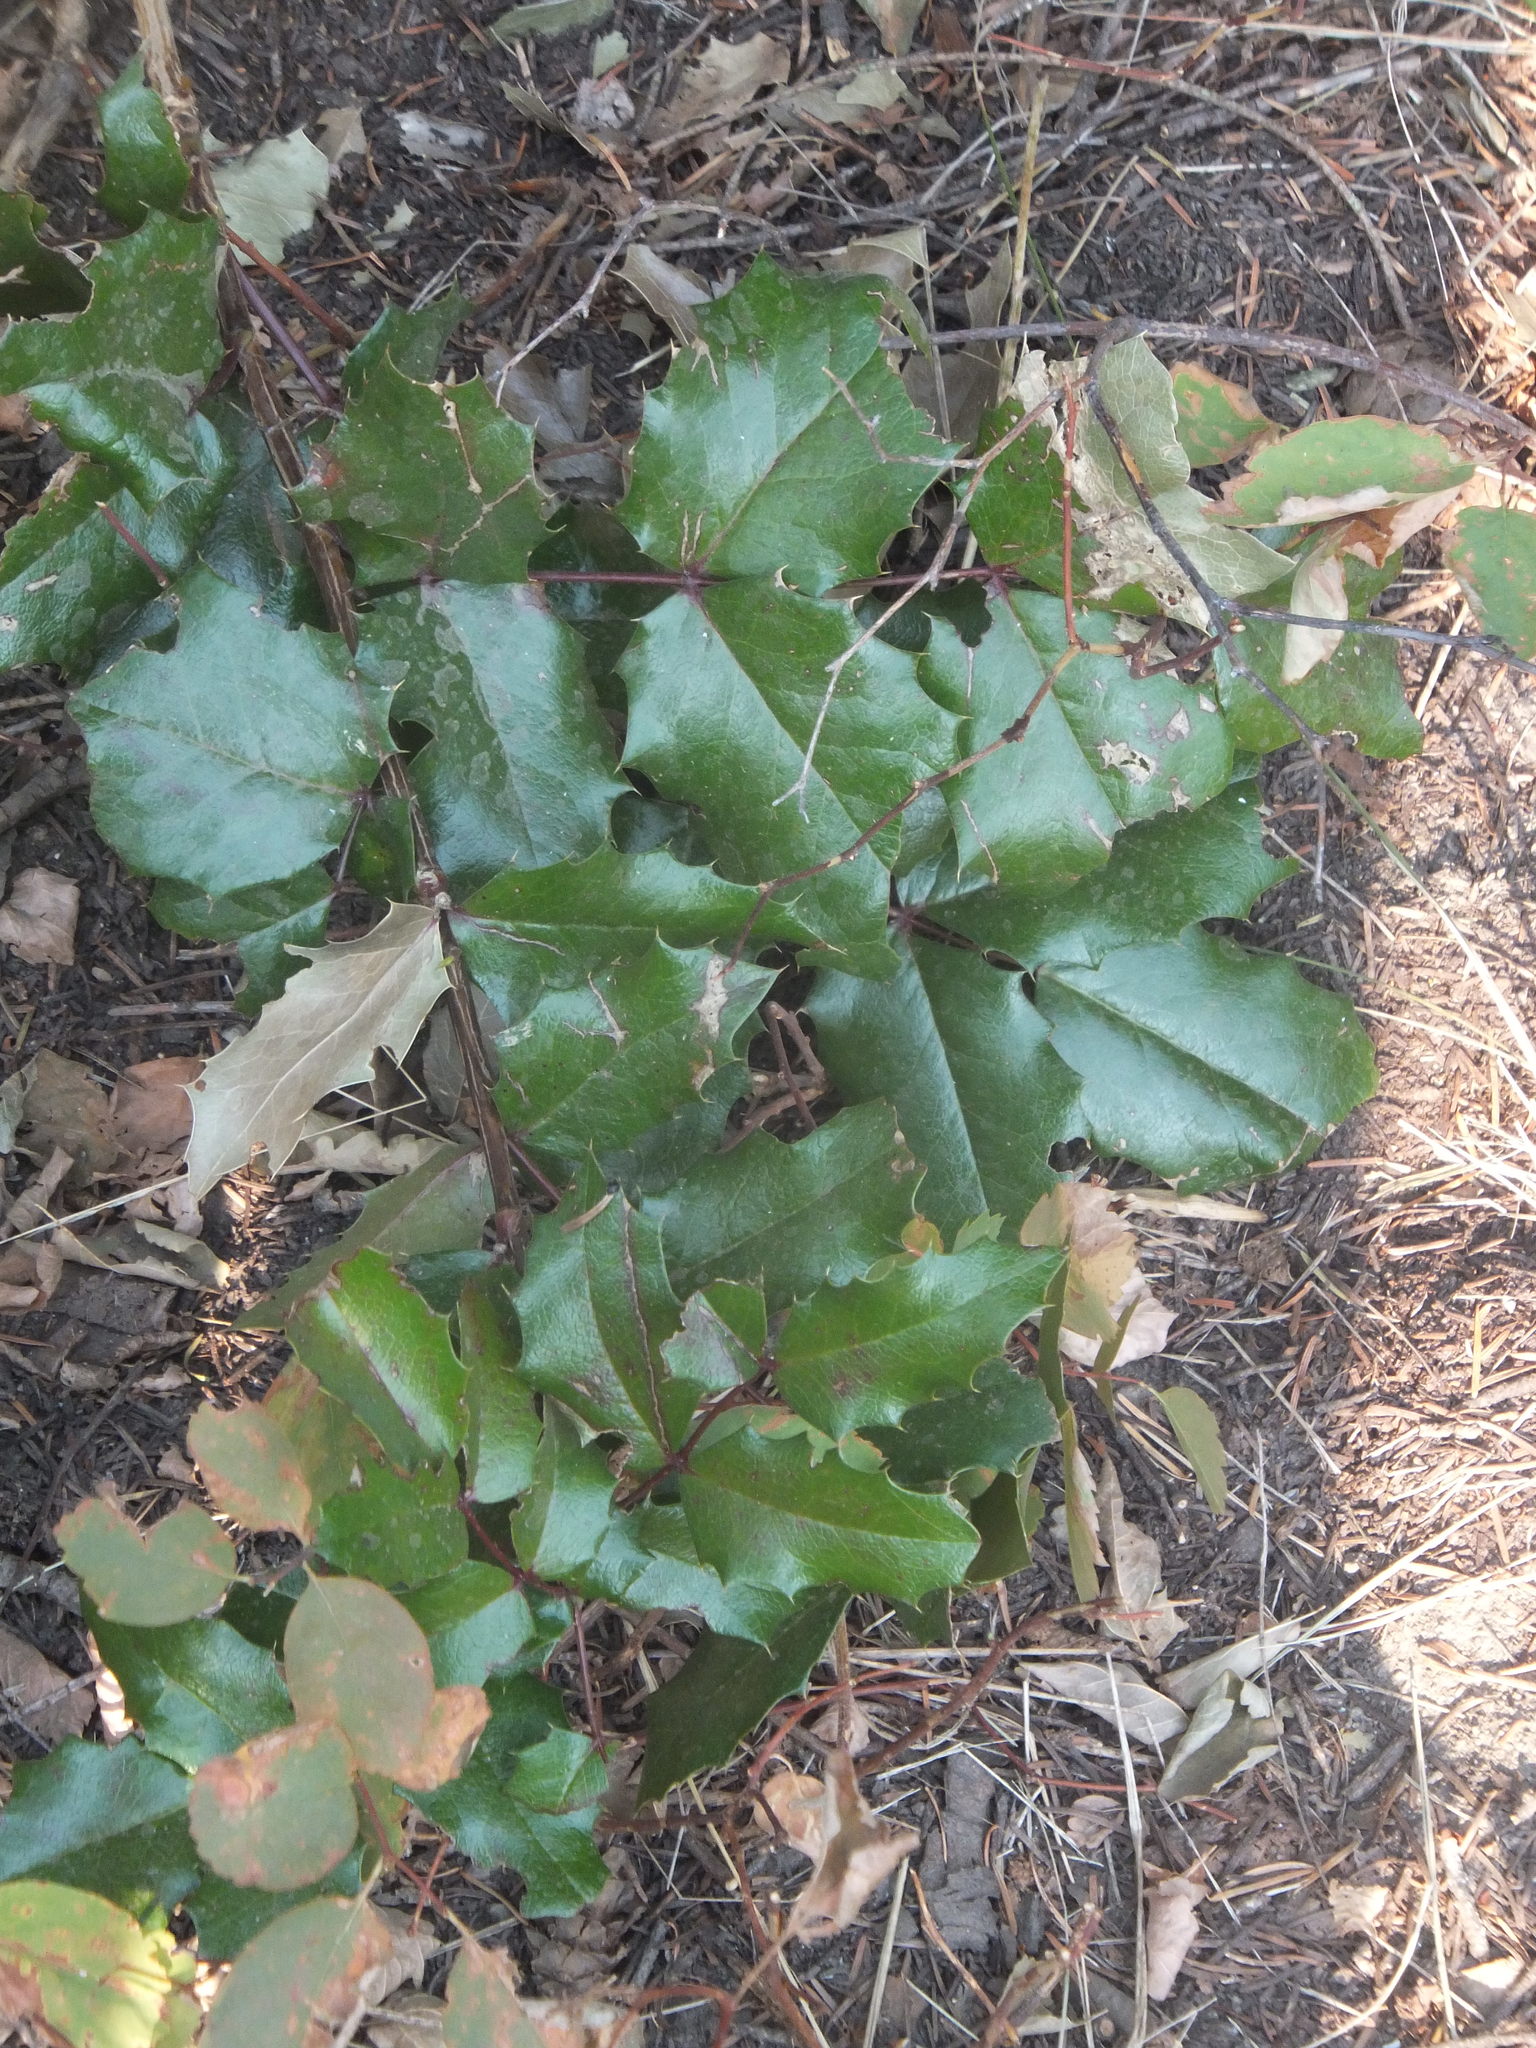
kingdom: Plantae
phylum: Tracheophyta
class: Magnoliopsida
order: Ranunculales
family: Berberidaceae
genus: Mahonia
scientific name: Mahonia aquifolium
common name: Oregon-grape
